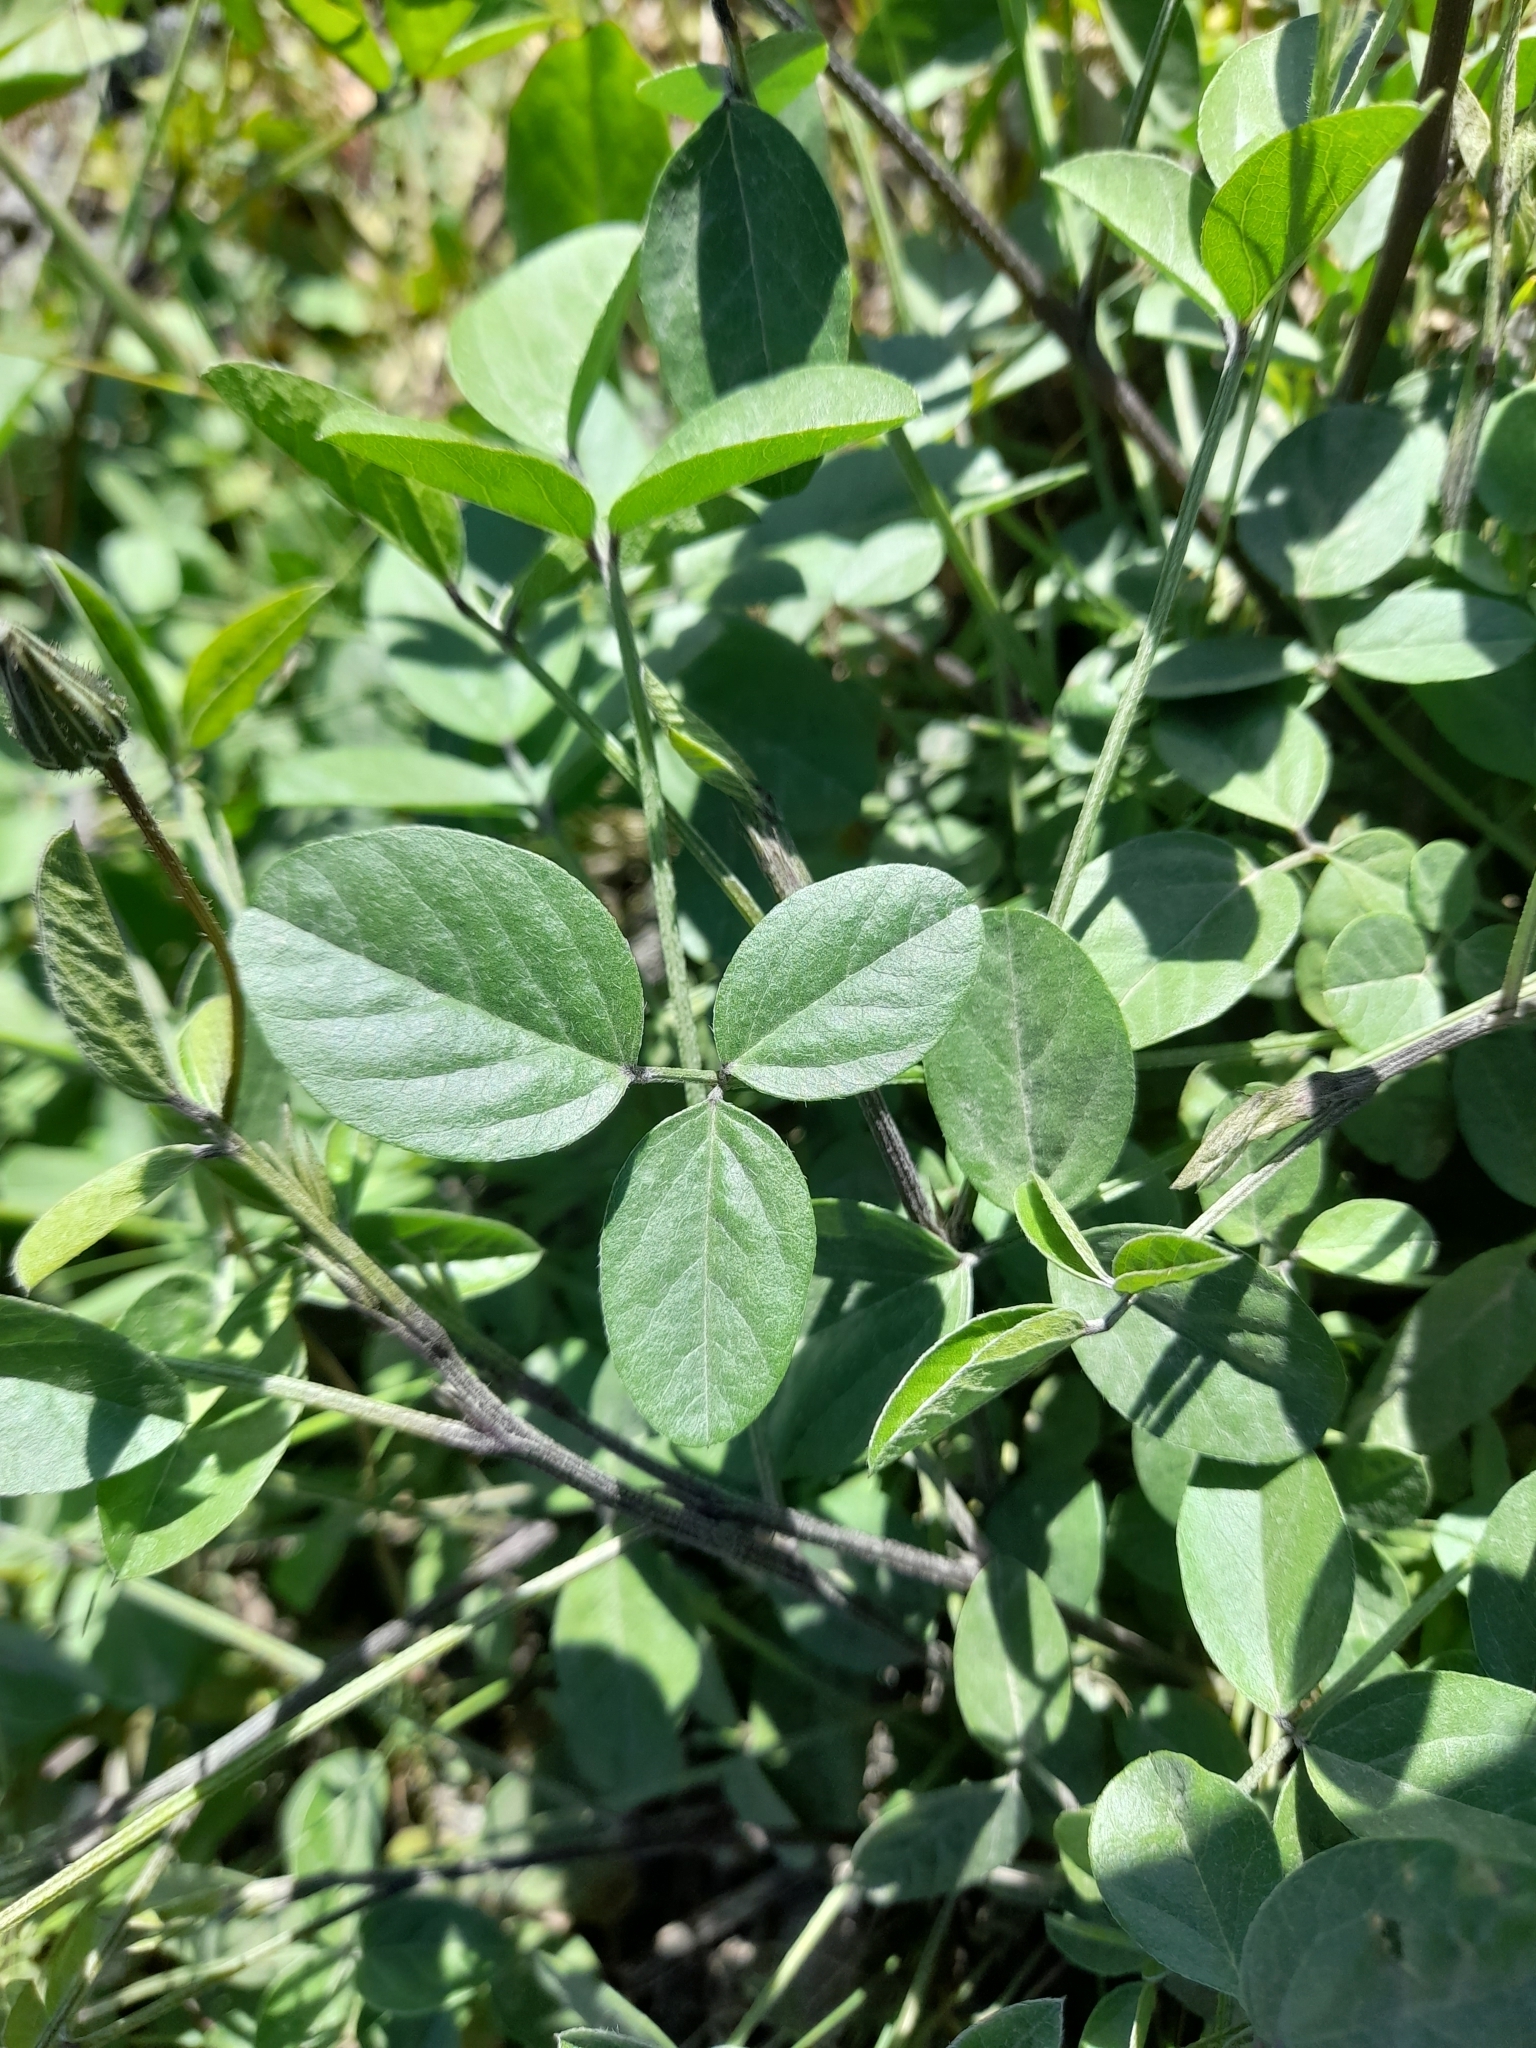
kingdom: Plantae
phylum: Tracheophyta
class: Magnoliopsida
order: Fabales
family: Fabaceae
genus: Bituminaria
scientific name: Bituminaria bituminosa
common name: Arabian pea
